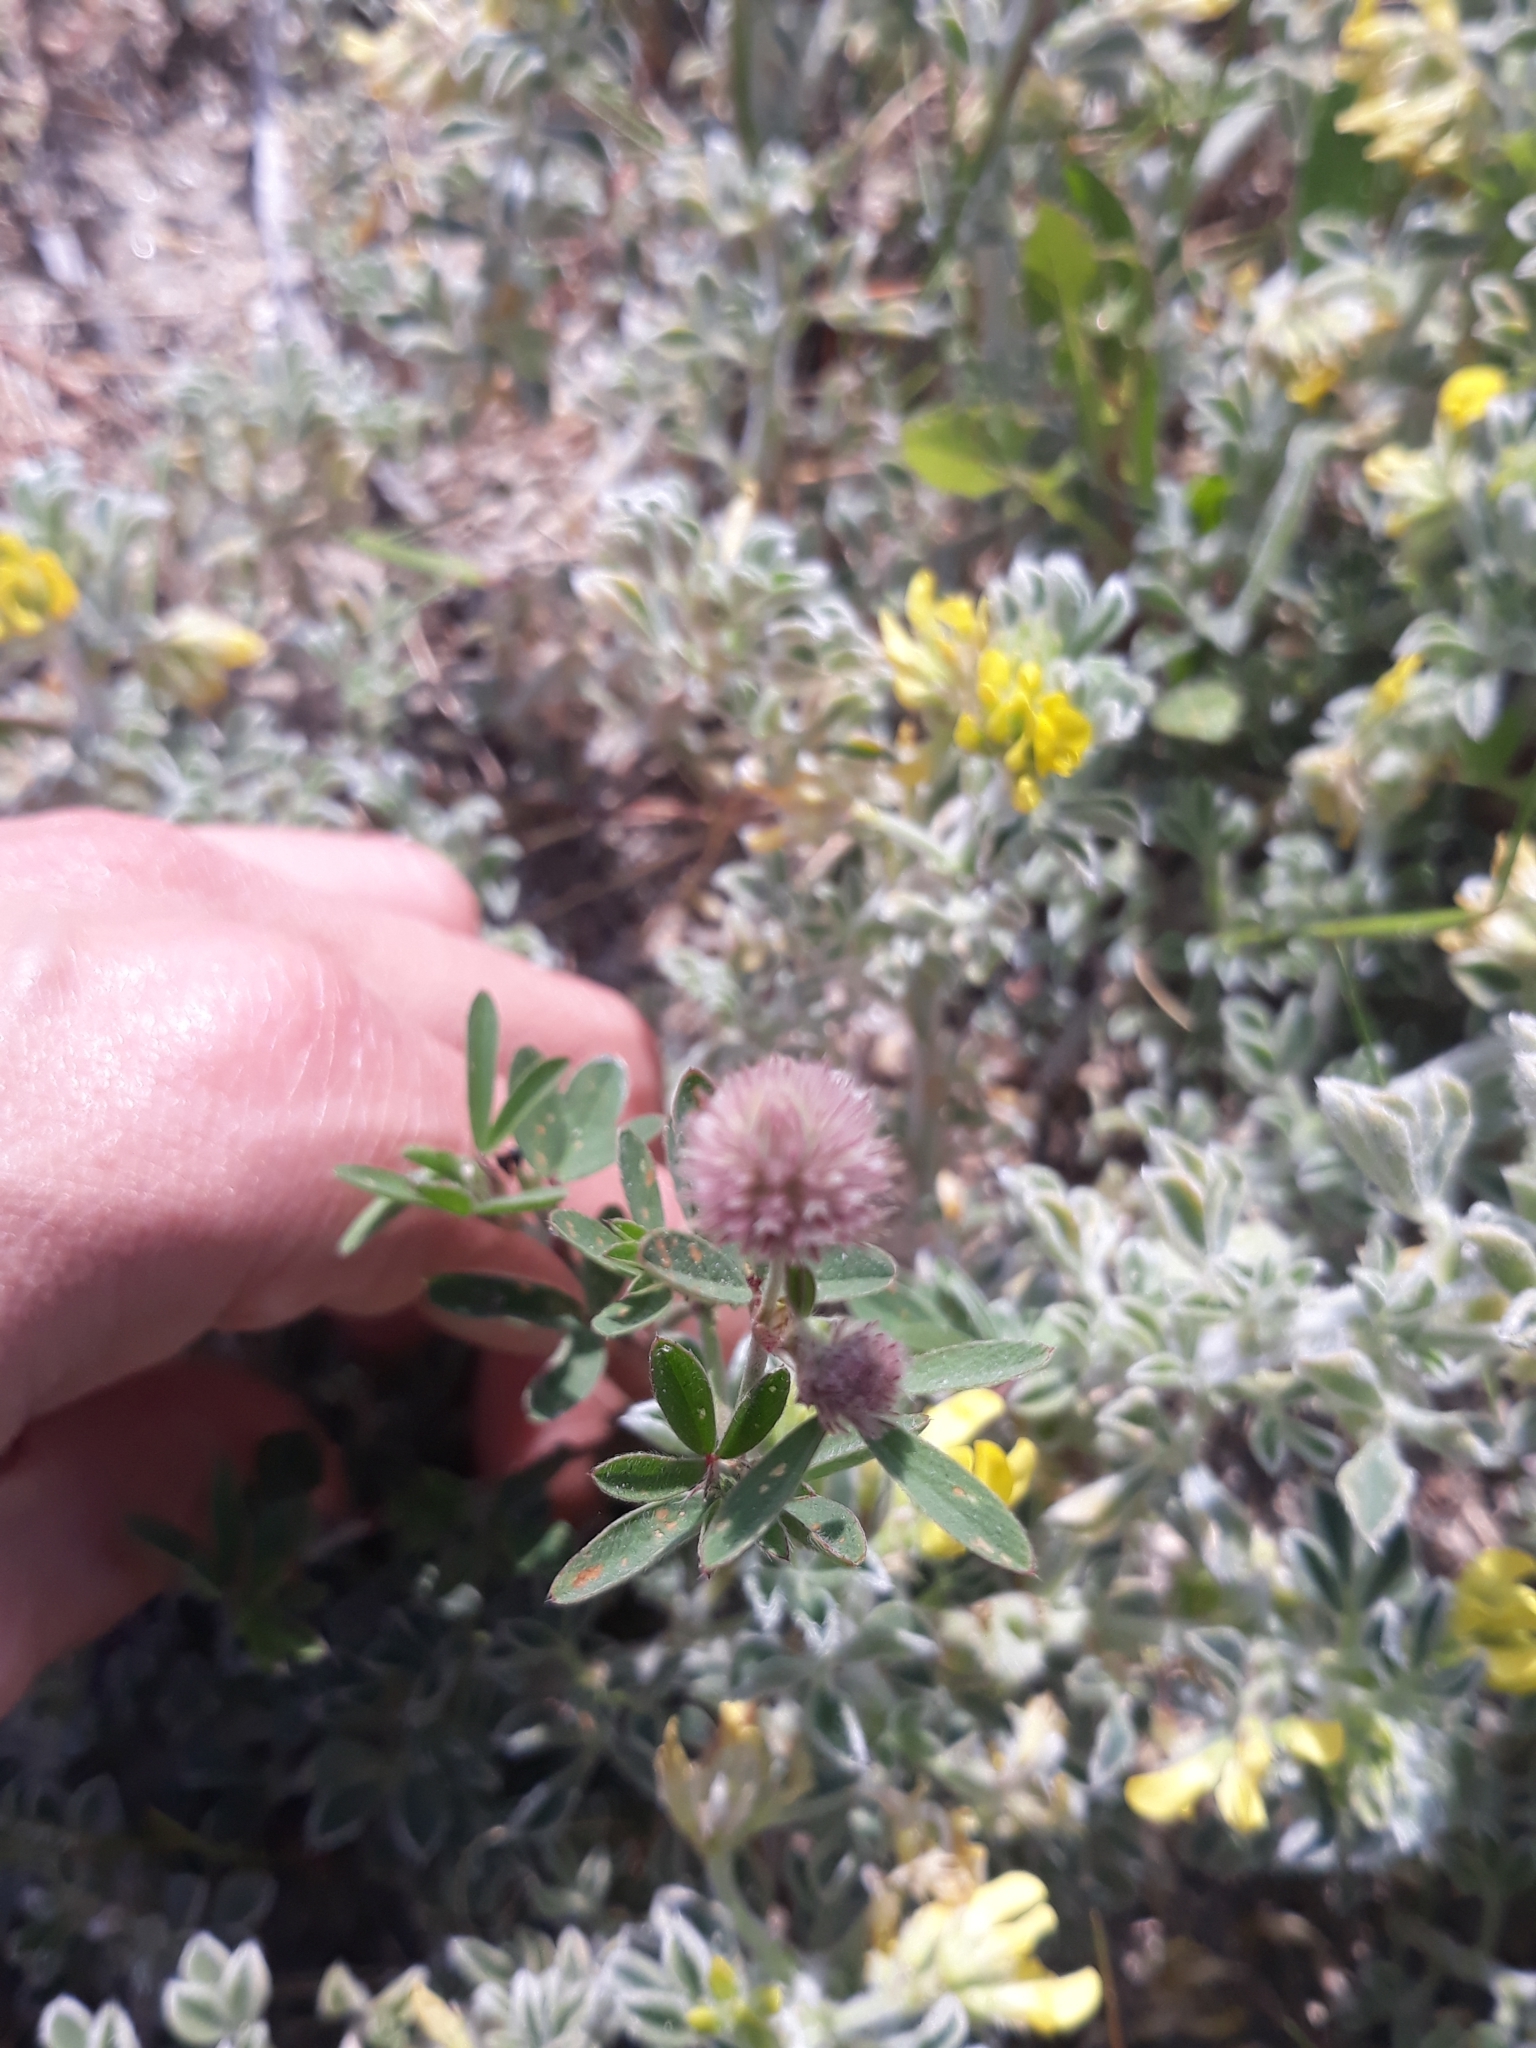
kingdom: Plantae
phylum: Tracheophyta
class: Magnoliopsida
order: Fabales
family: Fabaceae
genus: Trifolium
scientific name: Trifolium arvense
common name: Hare's-foot clover
